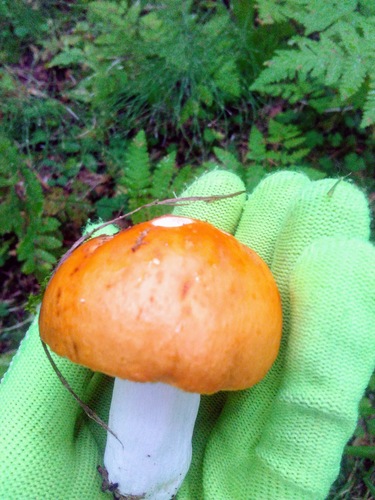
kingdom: Fungi
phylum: Basidiomycota
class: Agaricomycetes
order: Russulales
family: Russulaceae
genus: Russula
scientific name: Russula decolorans
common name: Copper brittlegill
